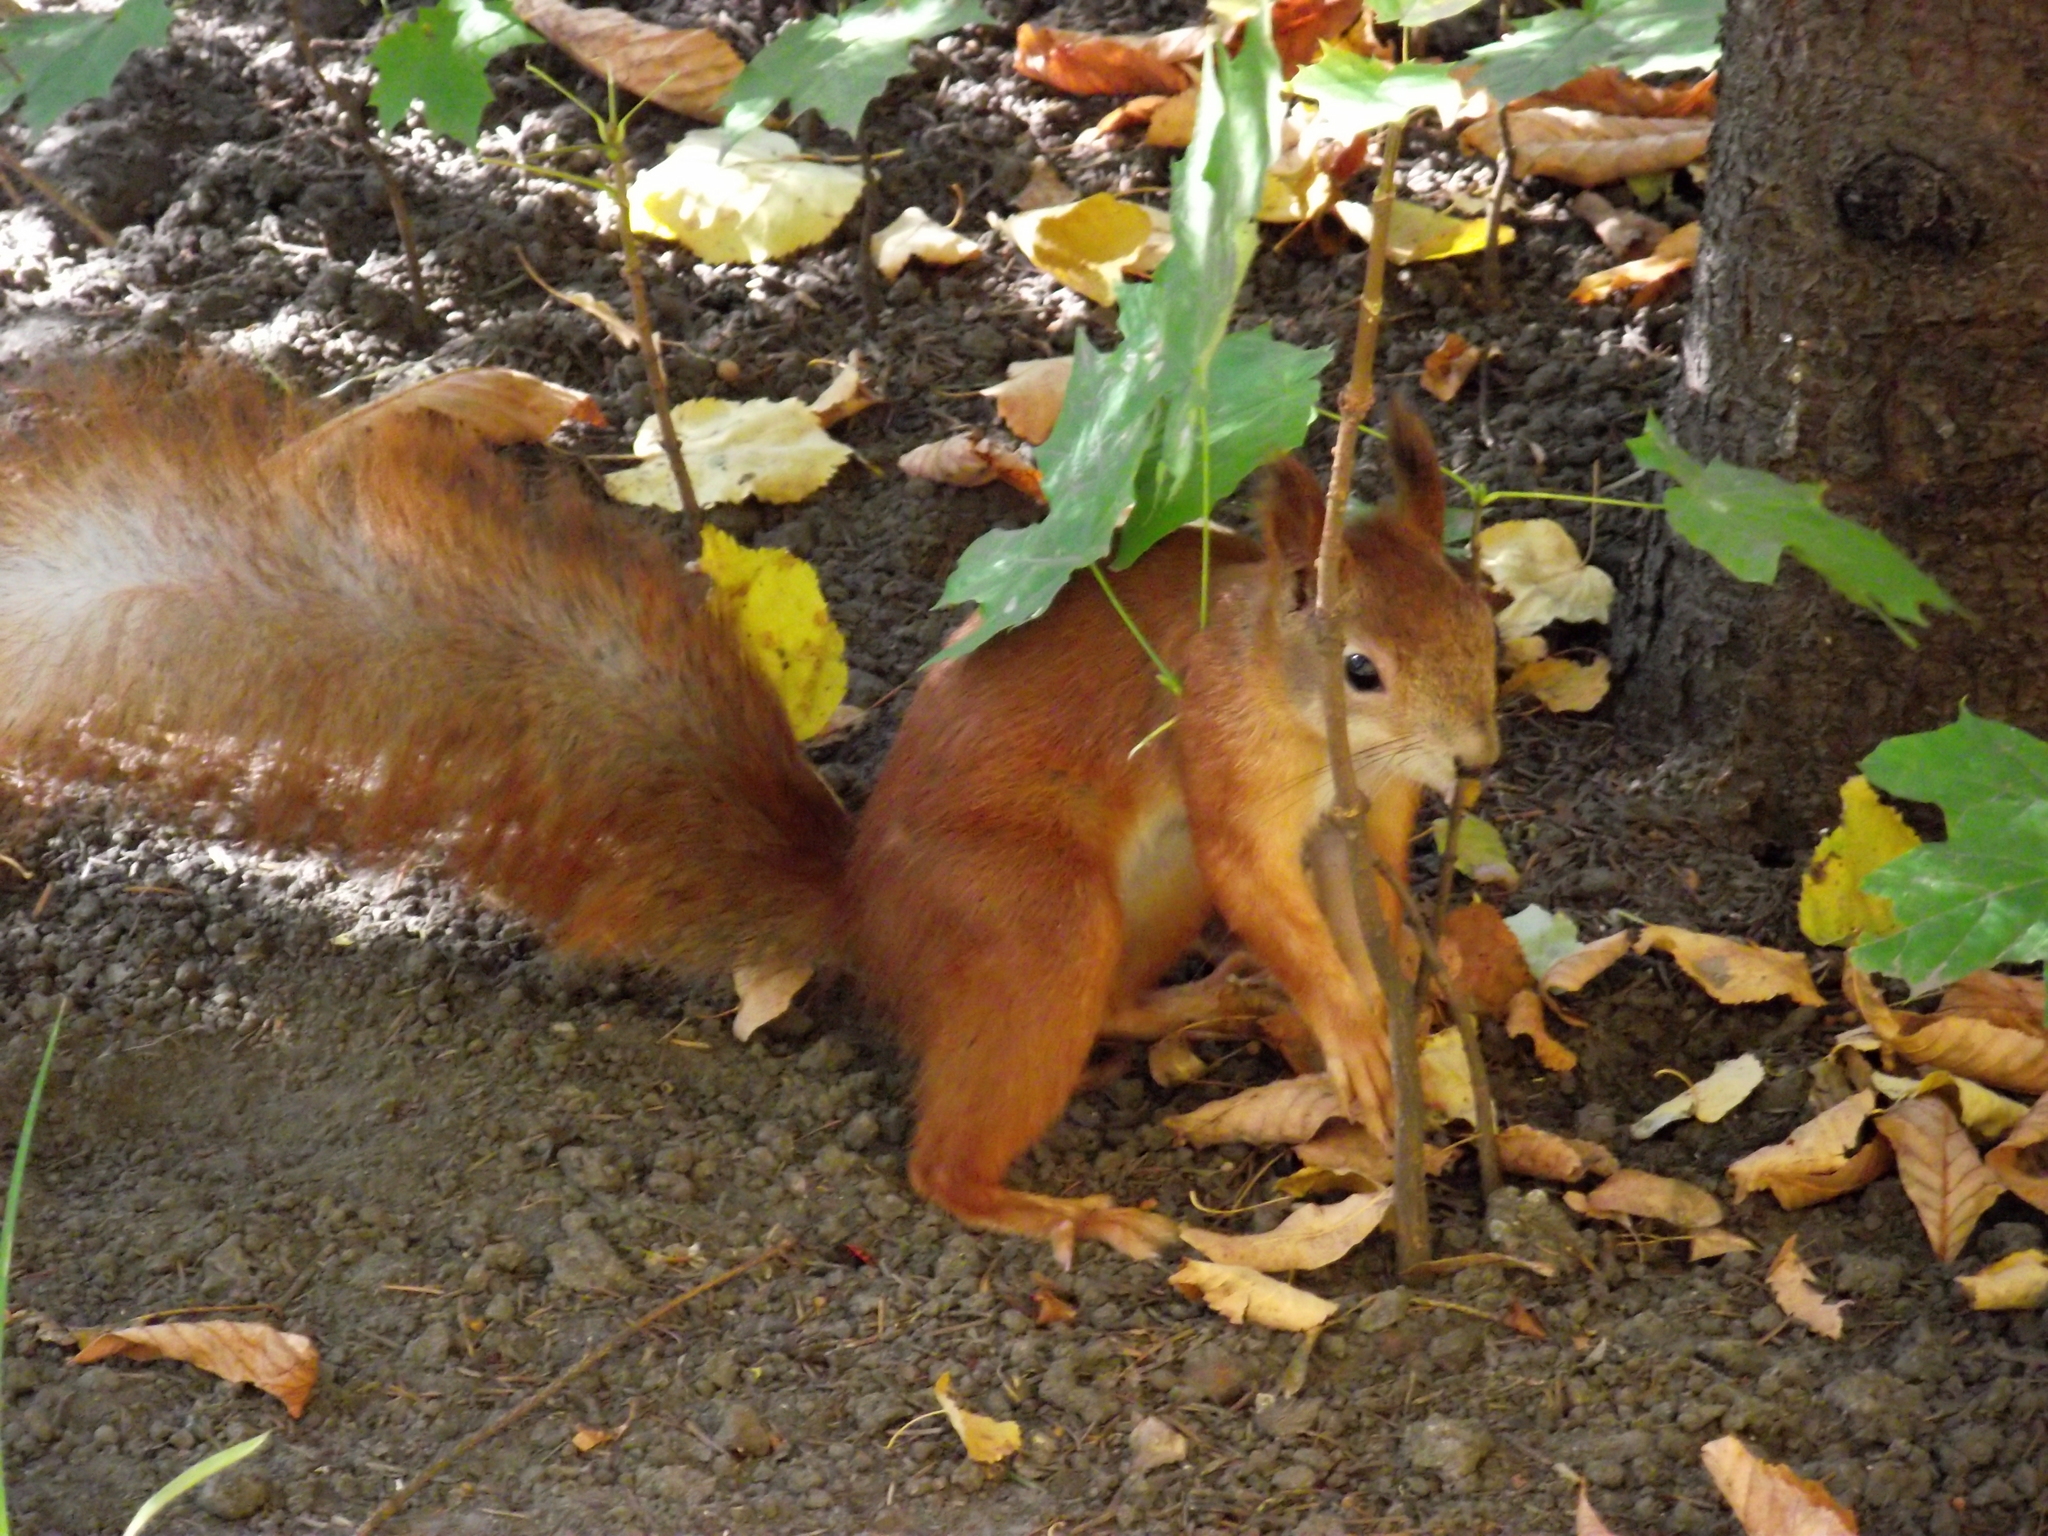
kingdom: Animalia
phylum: Chordata
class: Mammalia
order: Rodentia
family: Sciuridae
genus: Sciurus
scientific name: Sciurus vulgaris
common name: Eurasian red squirrel
